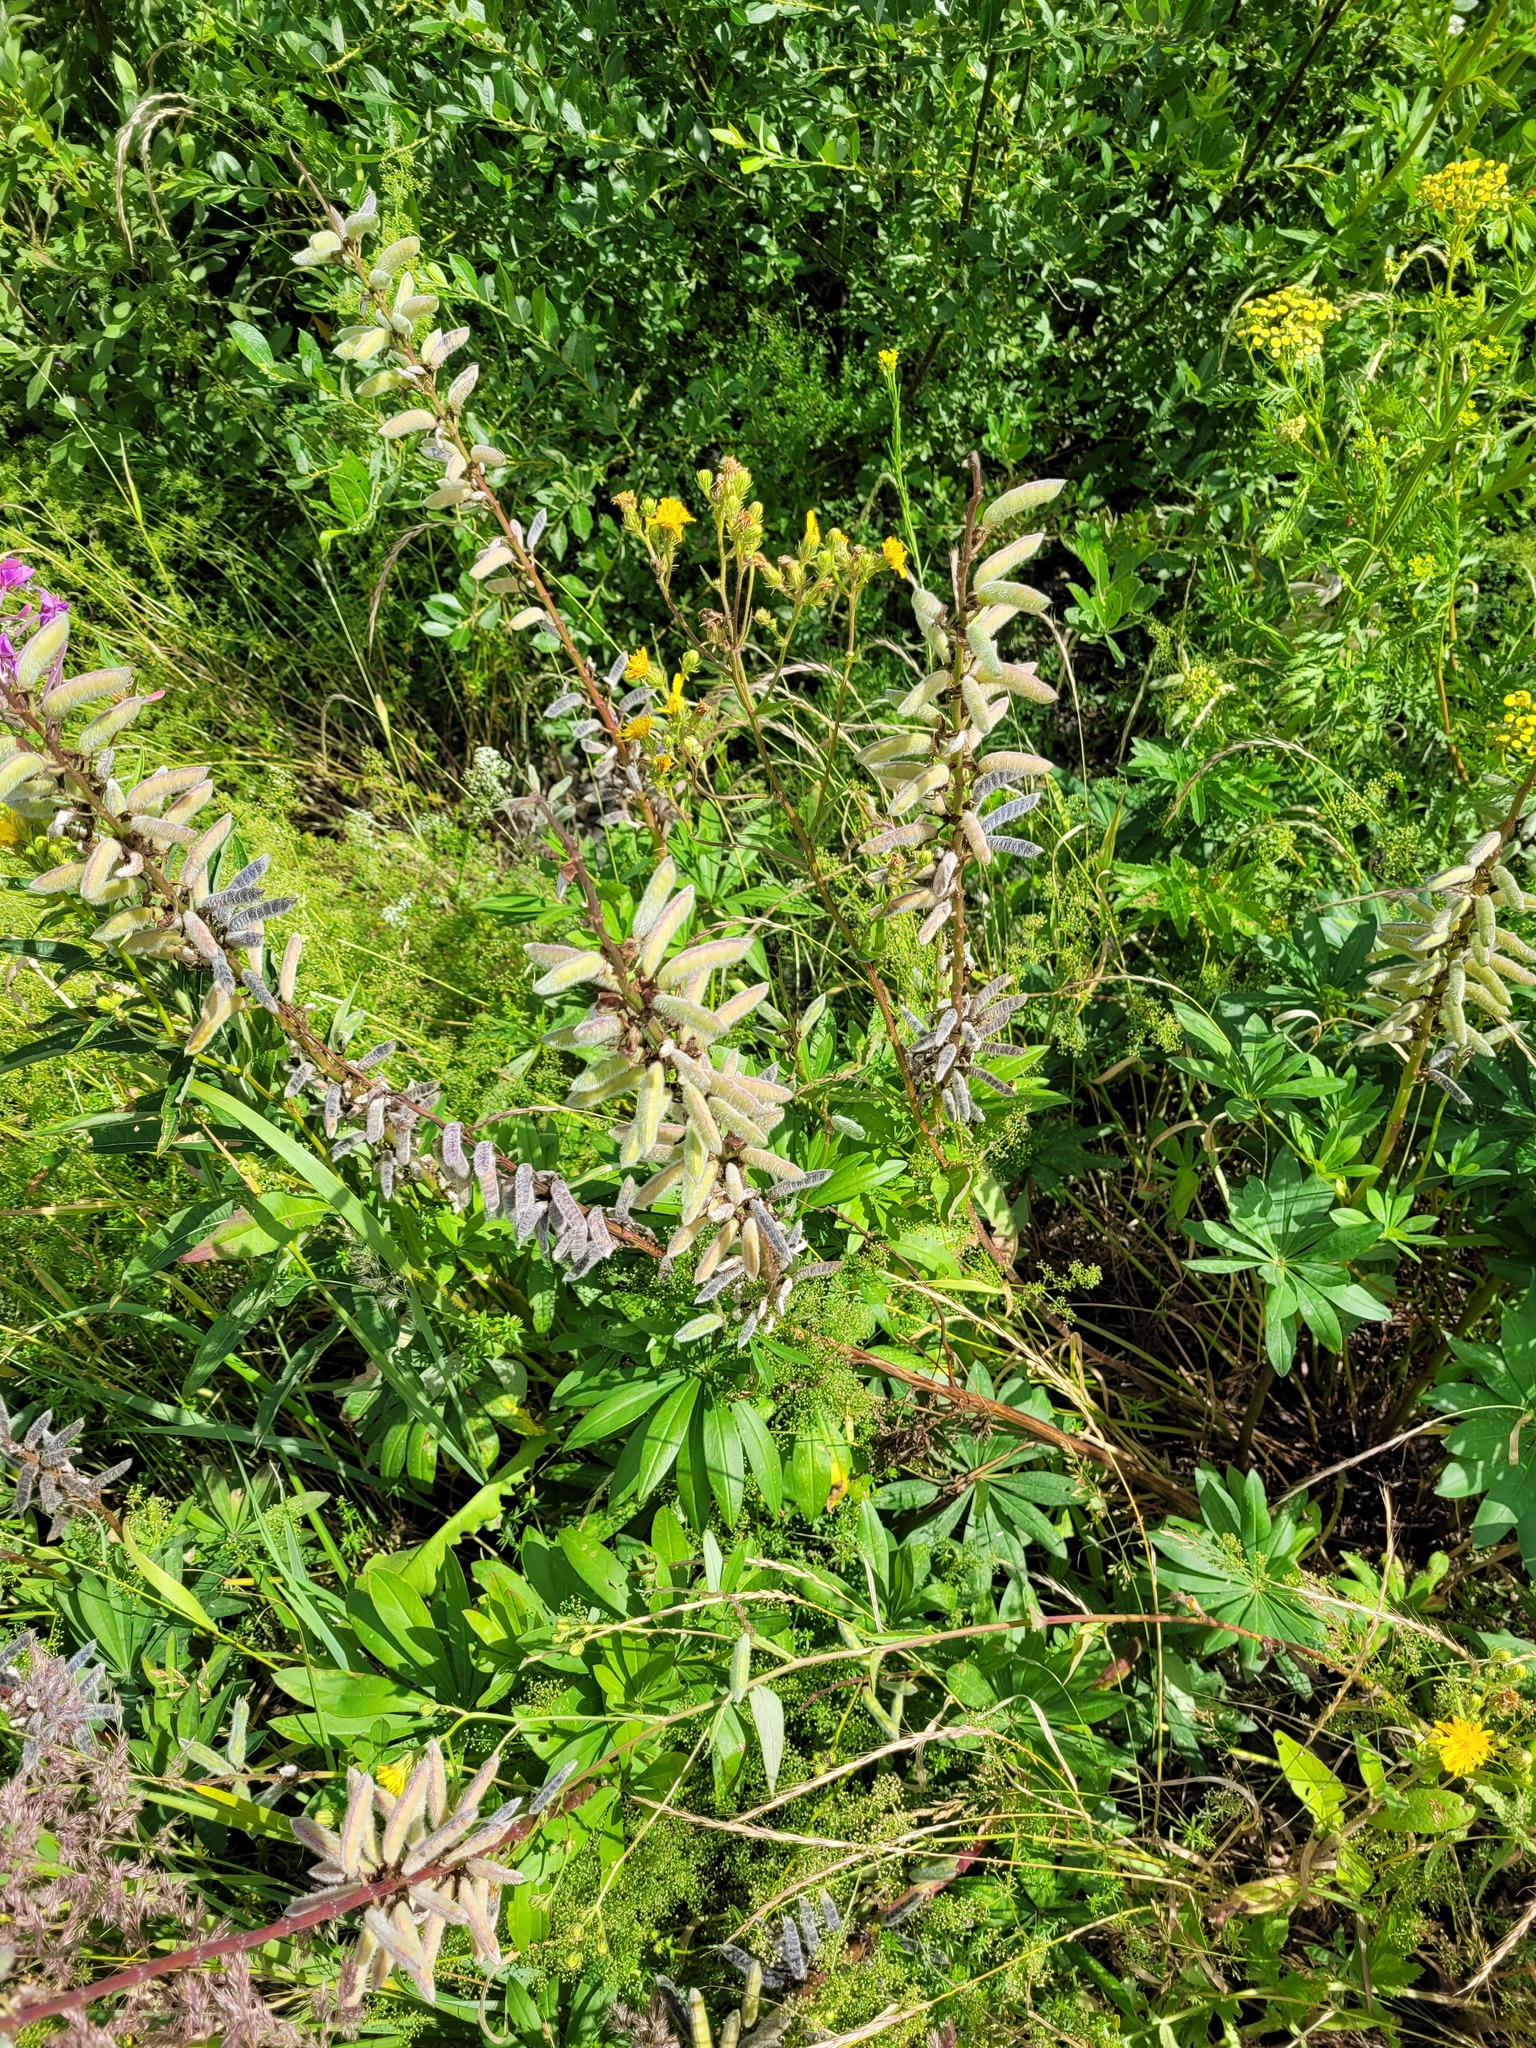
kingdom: Plantae
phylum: Tracheophyta
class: Magnoliopsida
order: Fabales
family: Fabaceae
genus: Lupinus
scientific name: Lupinus polyphyllus
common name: Garden lupin
